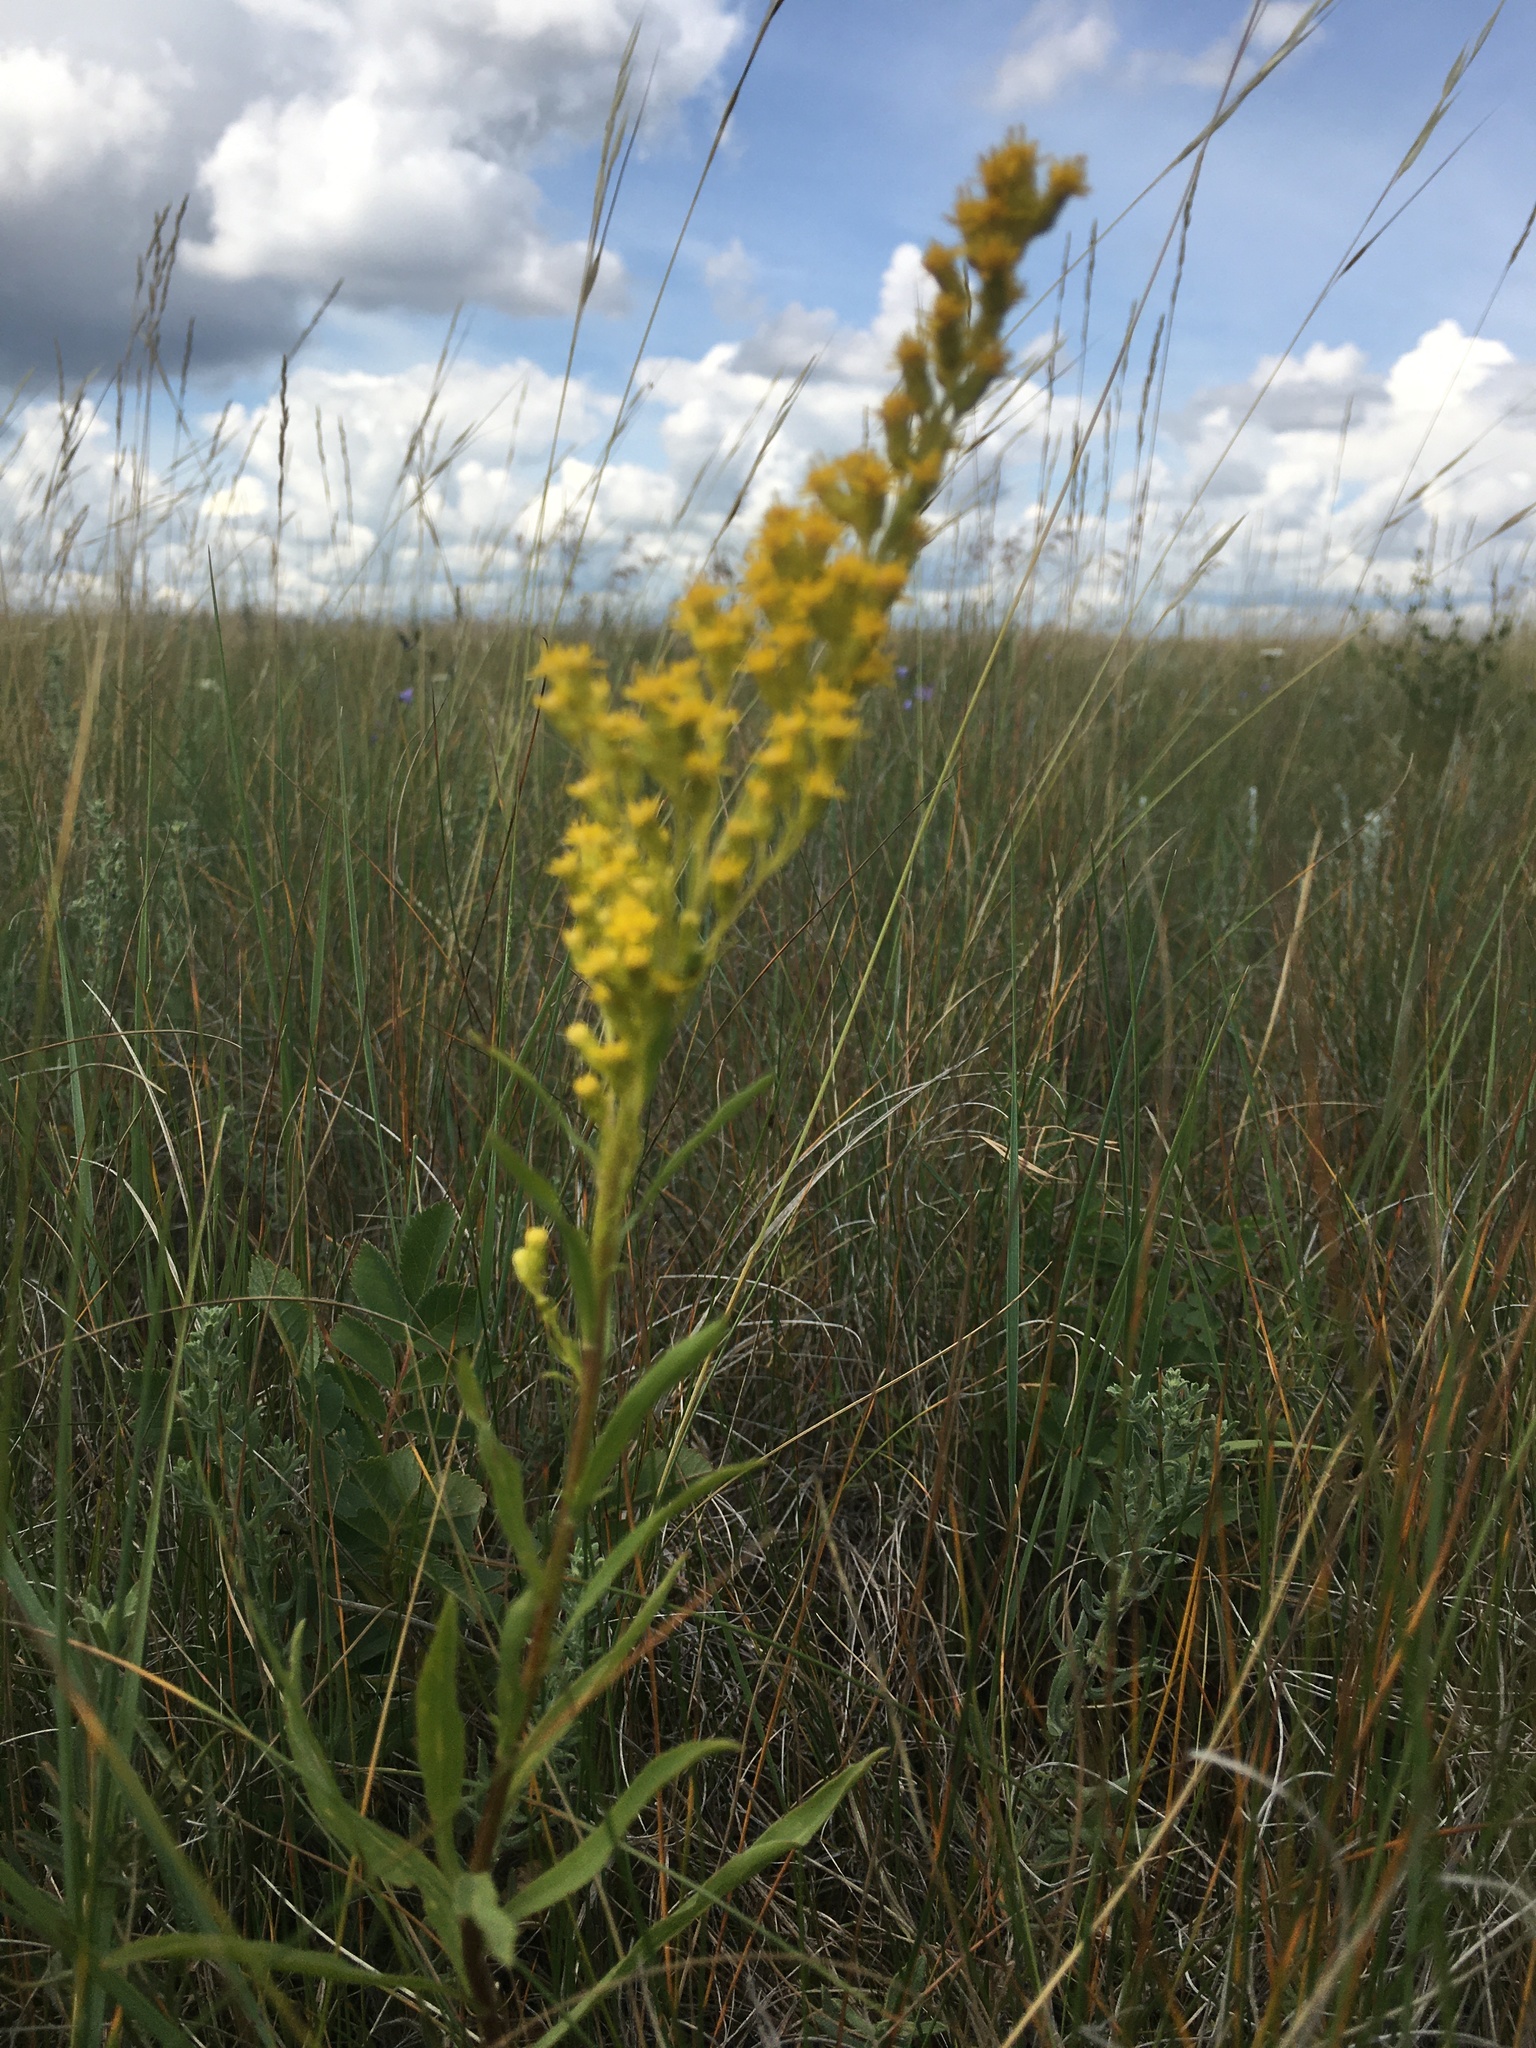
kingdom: Plantae
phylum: Tracheophyta
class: Magnoliopsida
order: Asterales
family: Asteraceae
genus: Solidago
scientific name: Solidago missouriensis
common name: Prairie goldenrod
